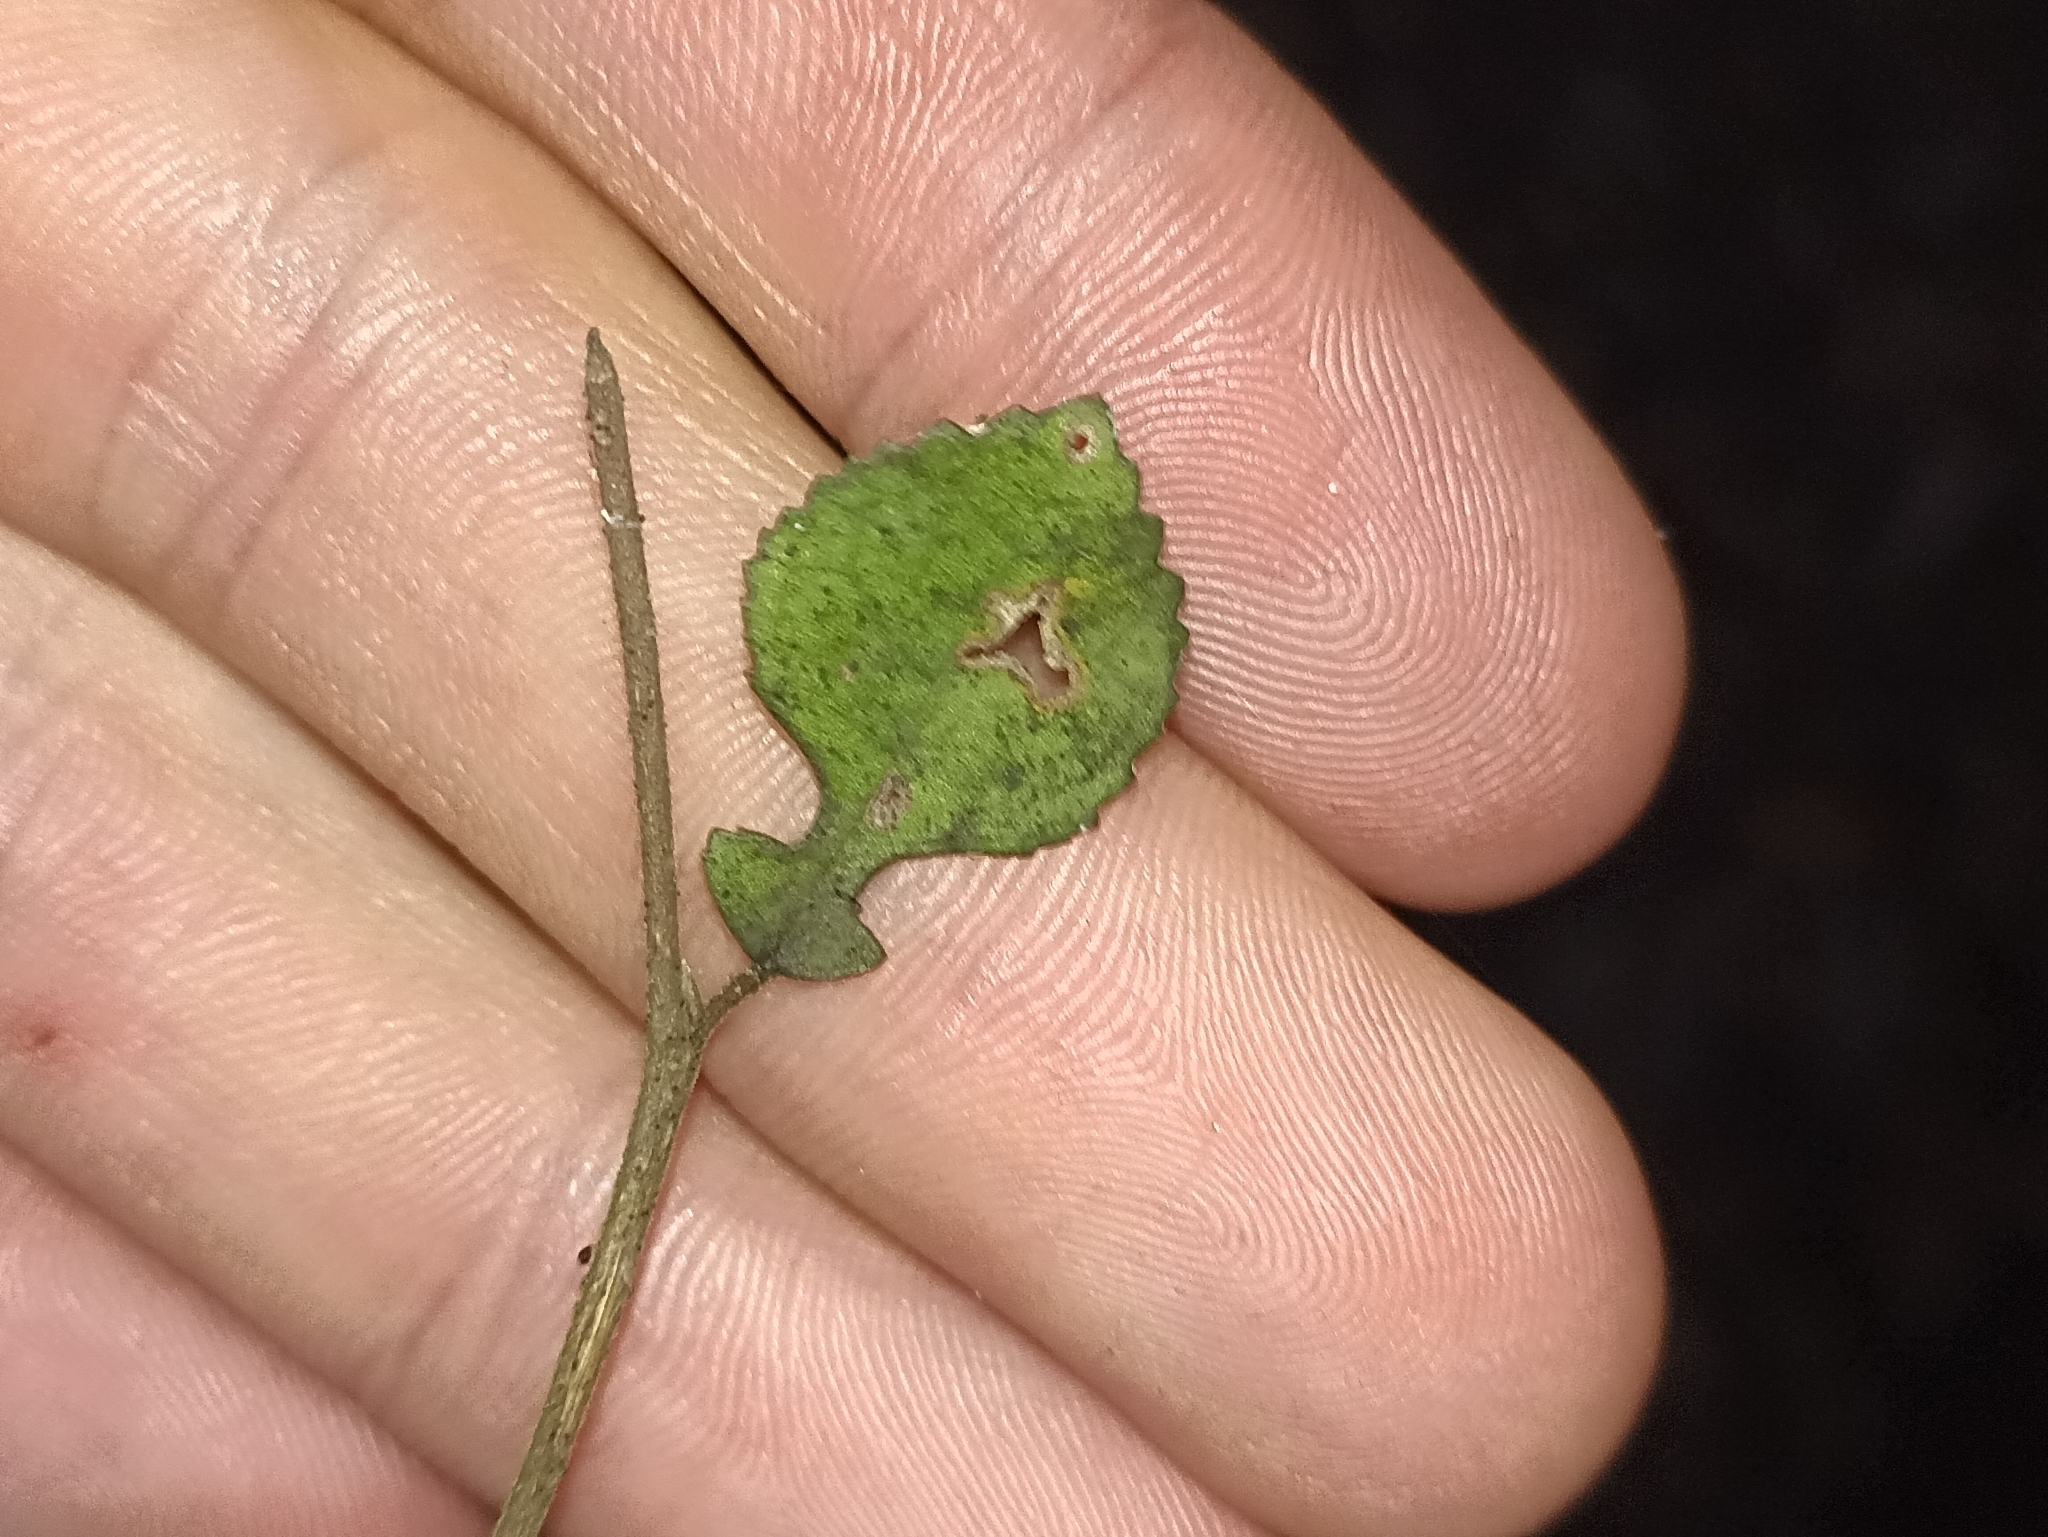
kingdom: Plantae
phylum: Tracheophyta
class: Magnoliopsida
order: Rosales
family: Moraceae
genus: Paratrophis
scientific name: Paratrophis microphylla
